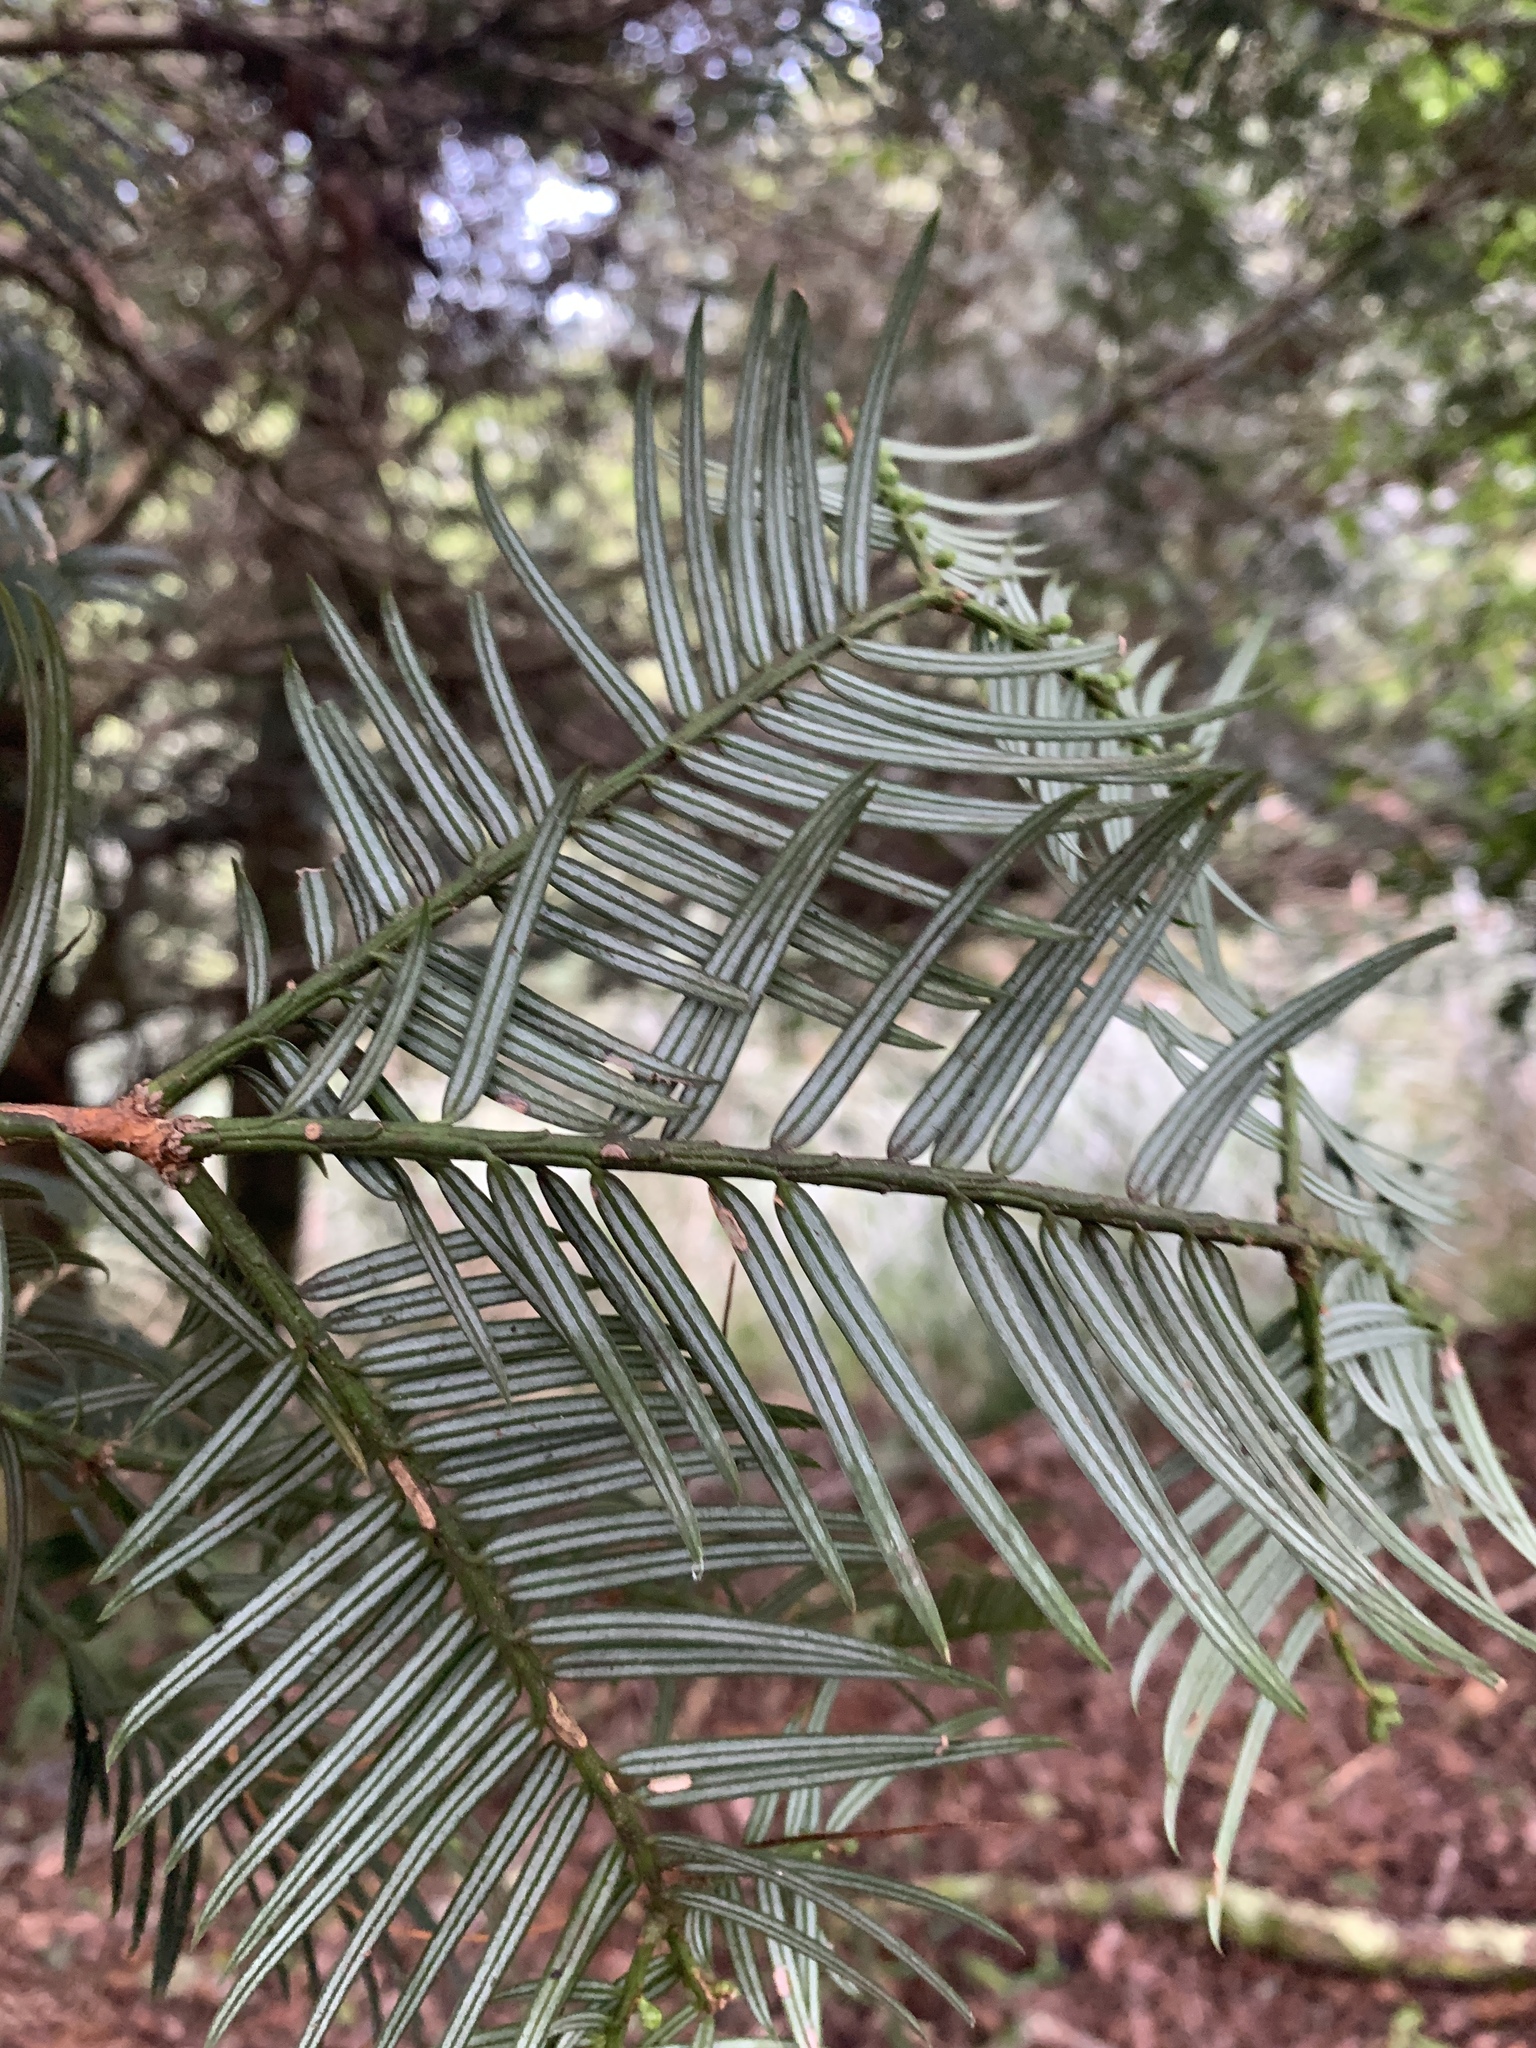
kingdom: Plantae
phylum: Tracheophyta
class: Pinopsida
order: Pinales
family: Cephalotaxaceae
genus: Cephalotaxus
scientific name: Cephalotaxus harringtonii
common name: Harrington's plum yew
